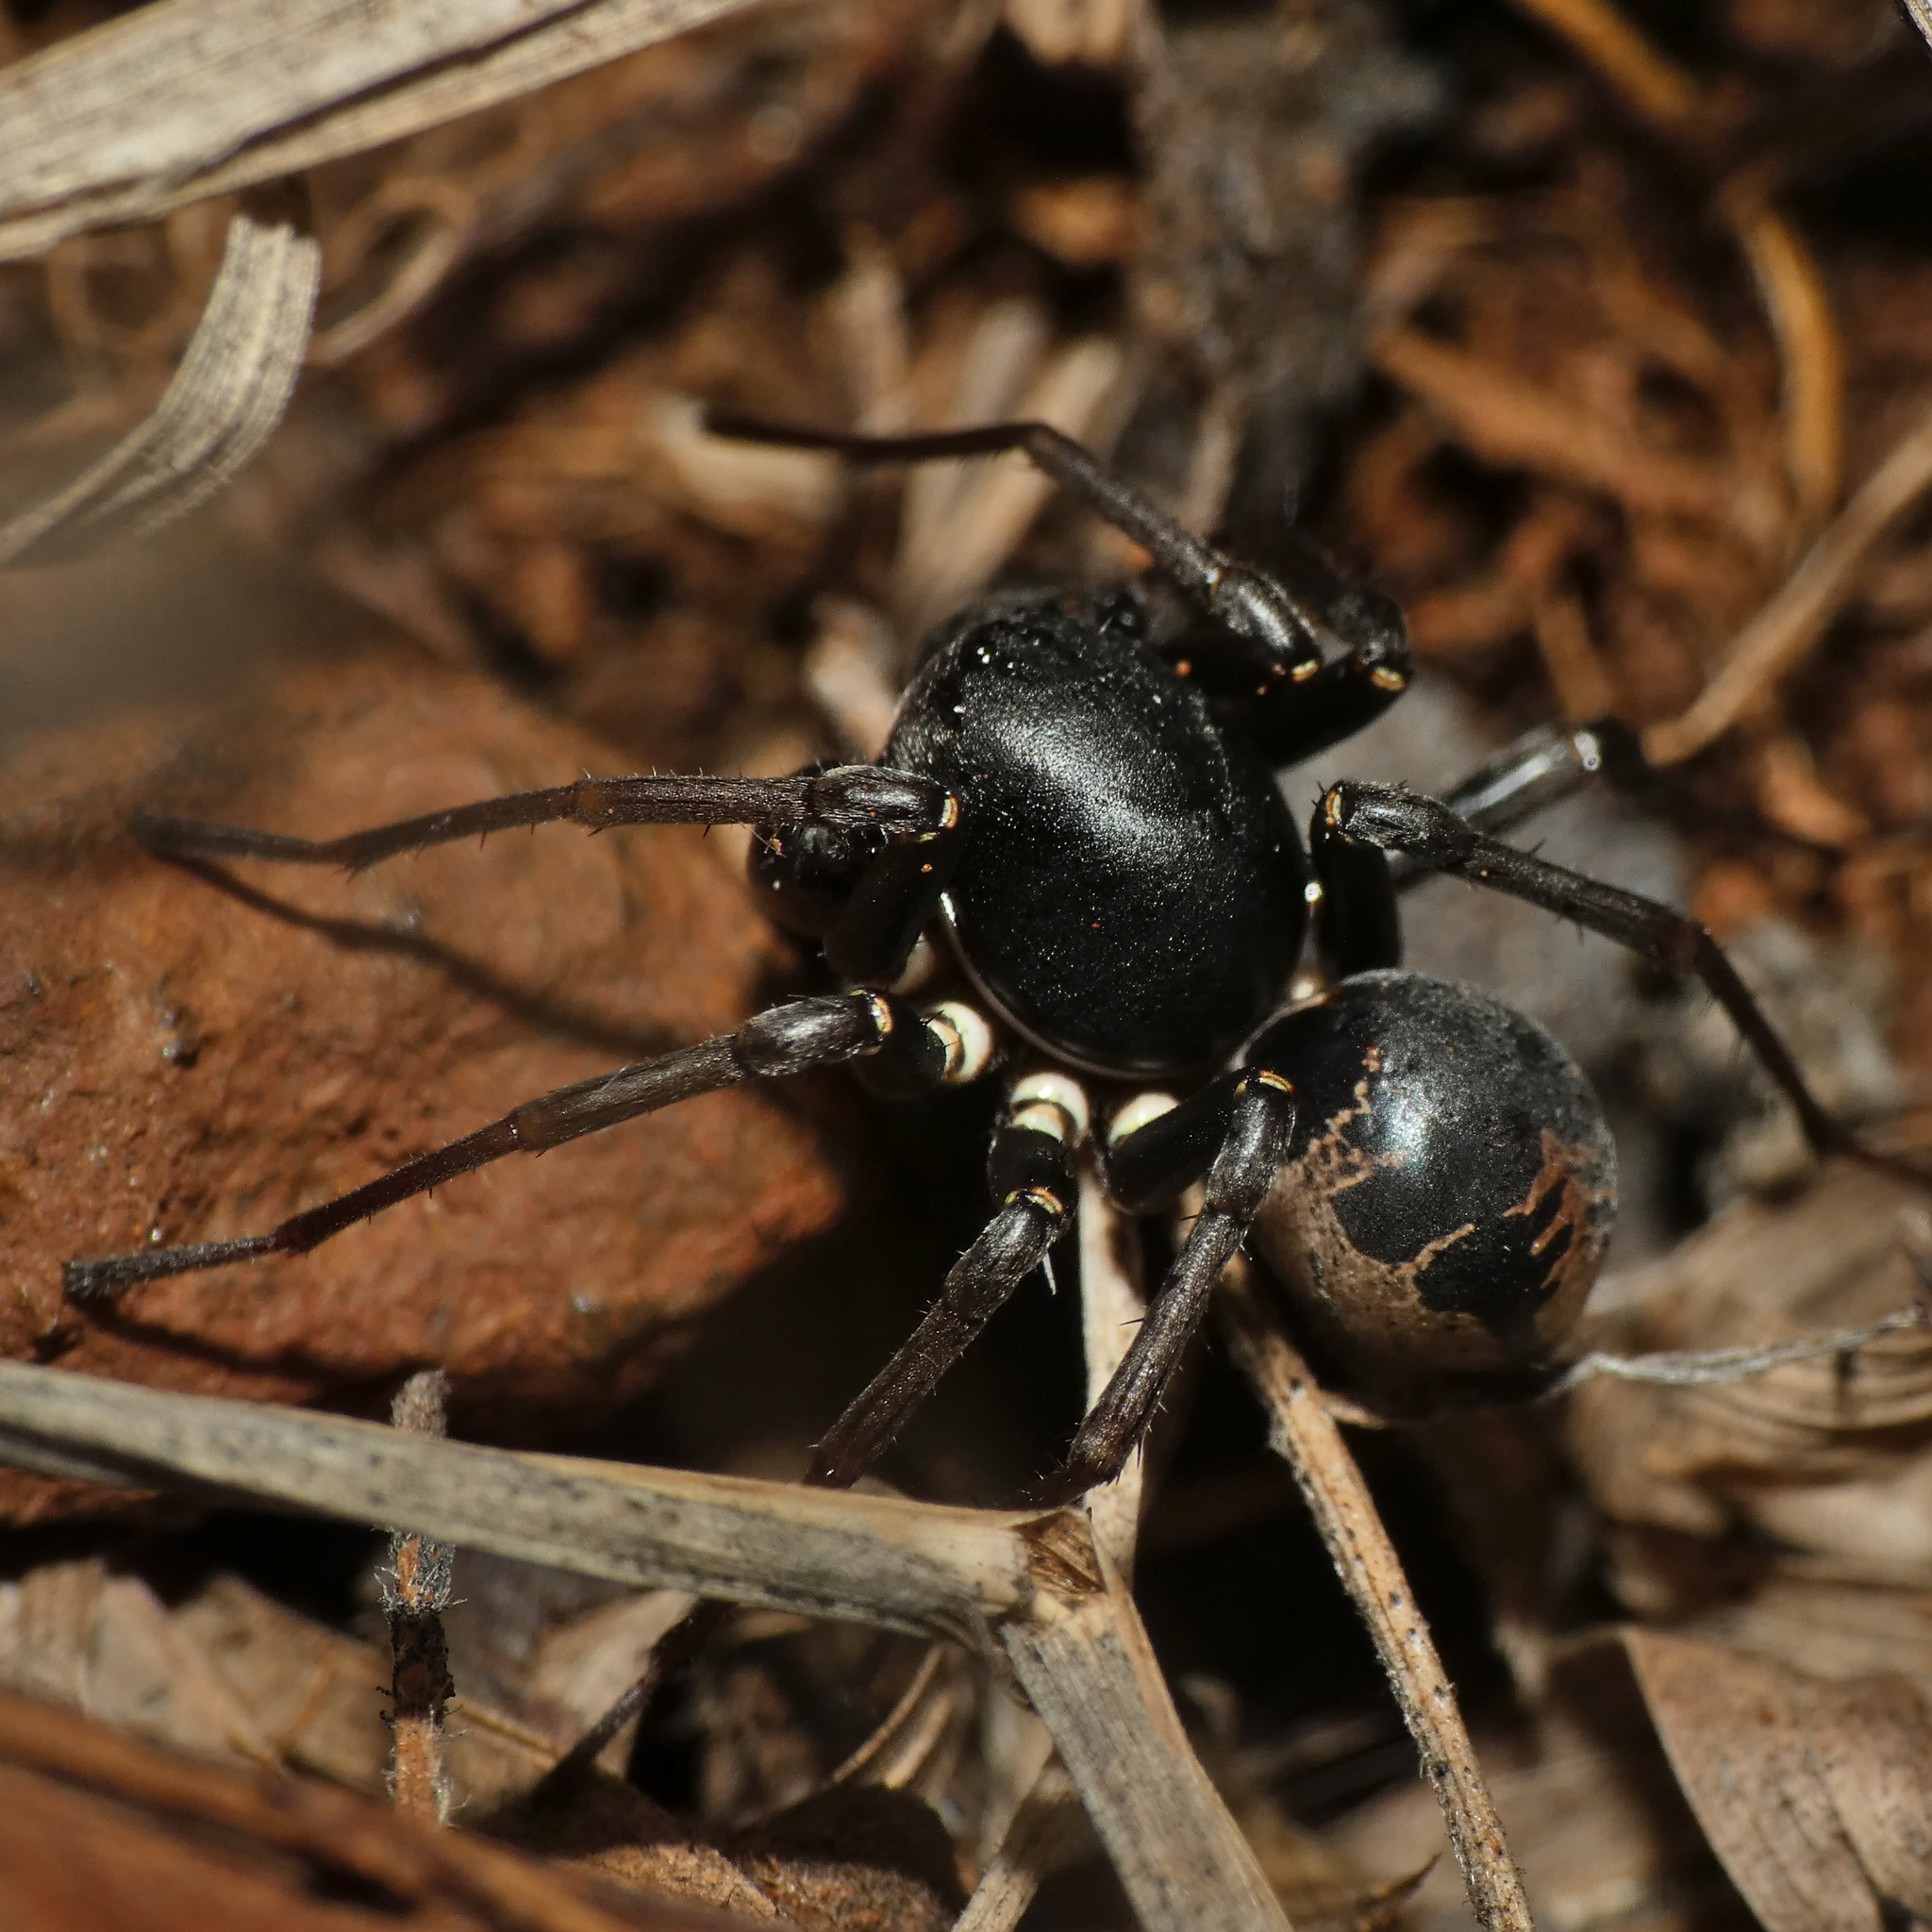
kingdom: Animalia
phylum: Arthropoda
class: Arachnida
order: Araneae
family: Zodariidae
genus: Hermippus
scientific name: Hermippus tenebrosus
